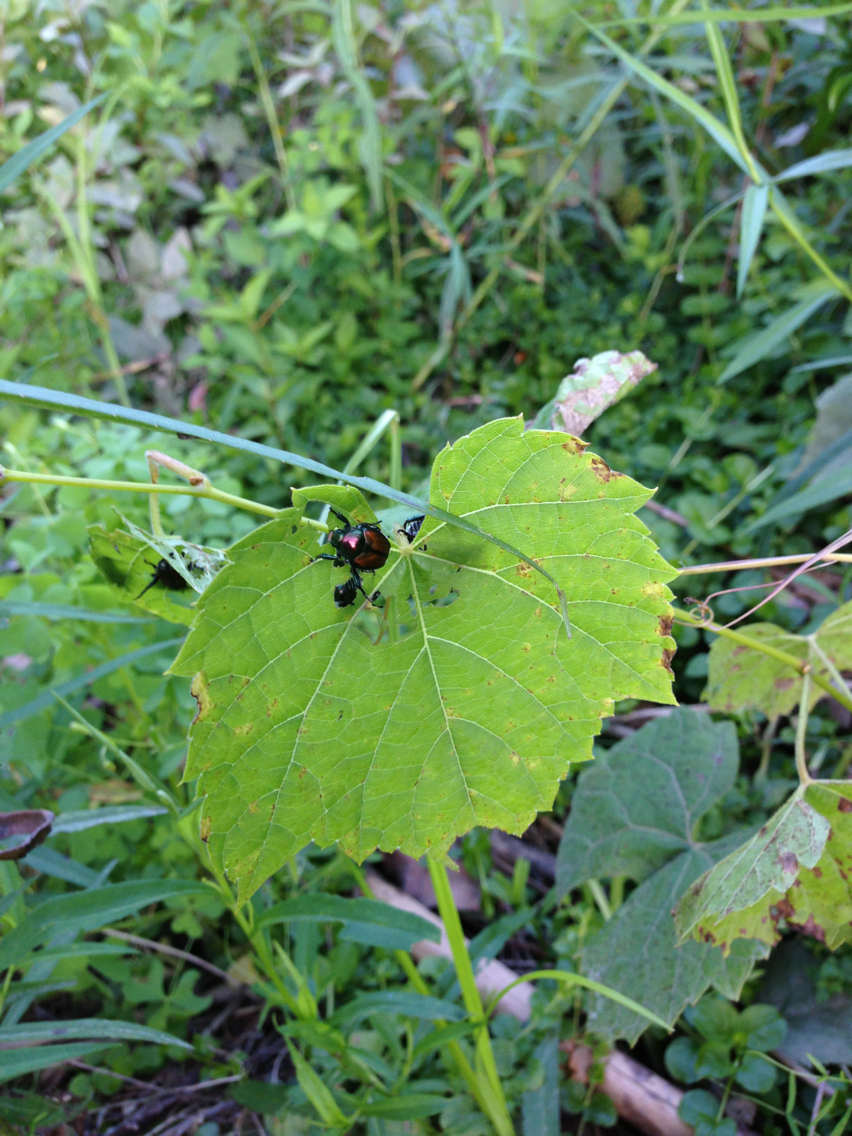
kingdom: Animalia
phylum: Arthropoda
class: Insecta
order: Coleoptera
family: Scarabaeidae
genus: Popillia
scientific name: Popillia japonica
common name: Japanese beetle
